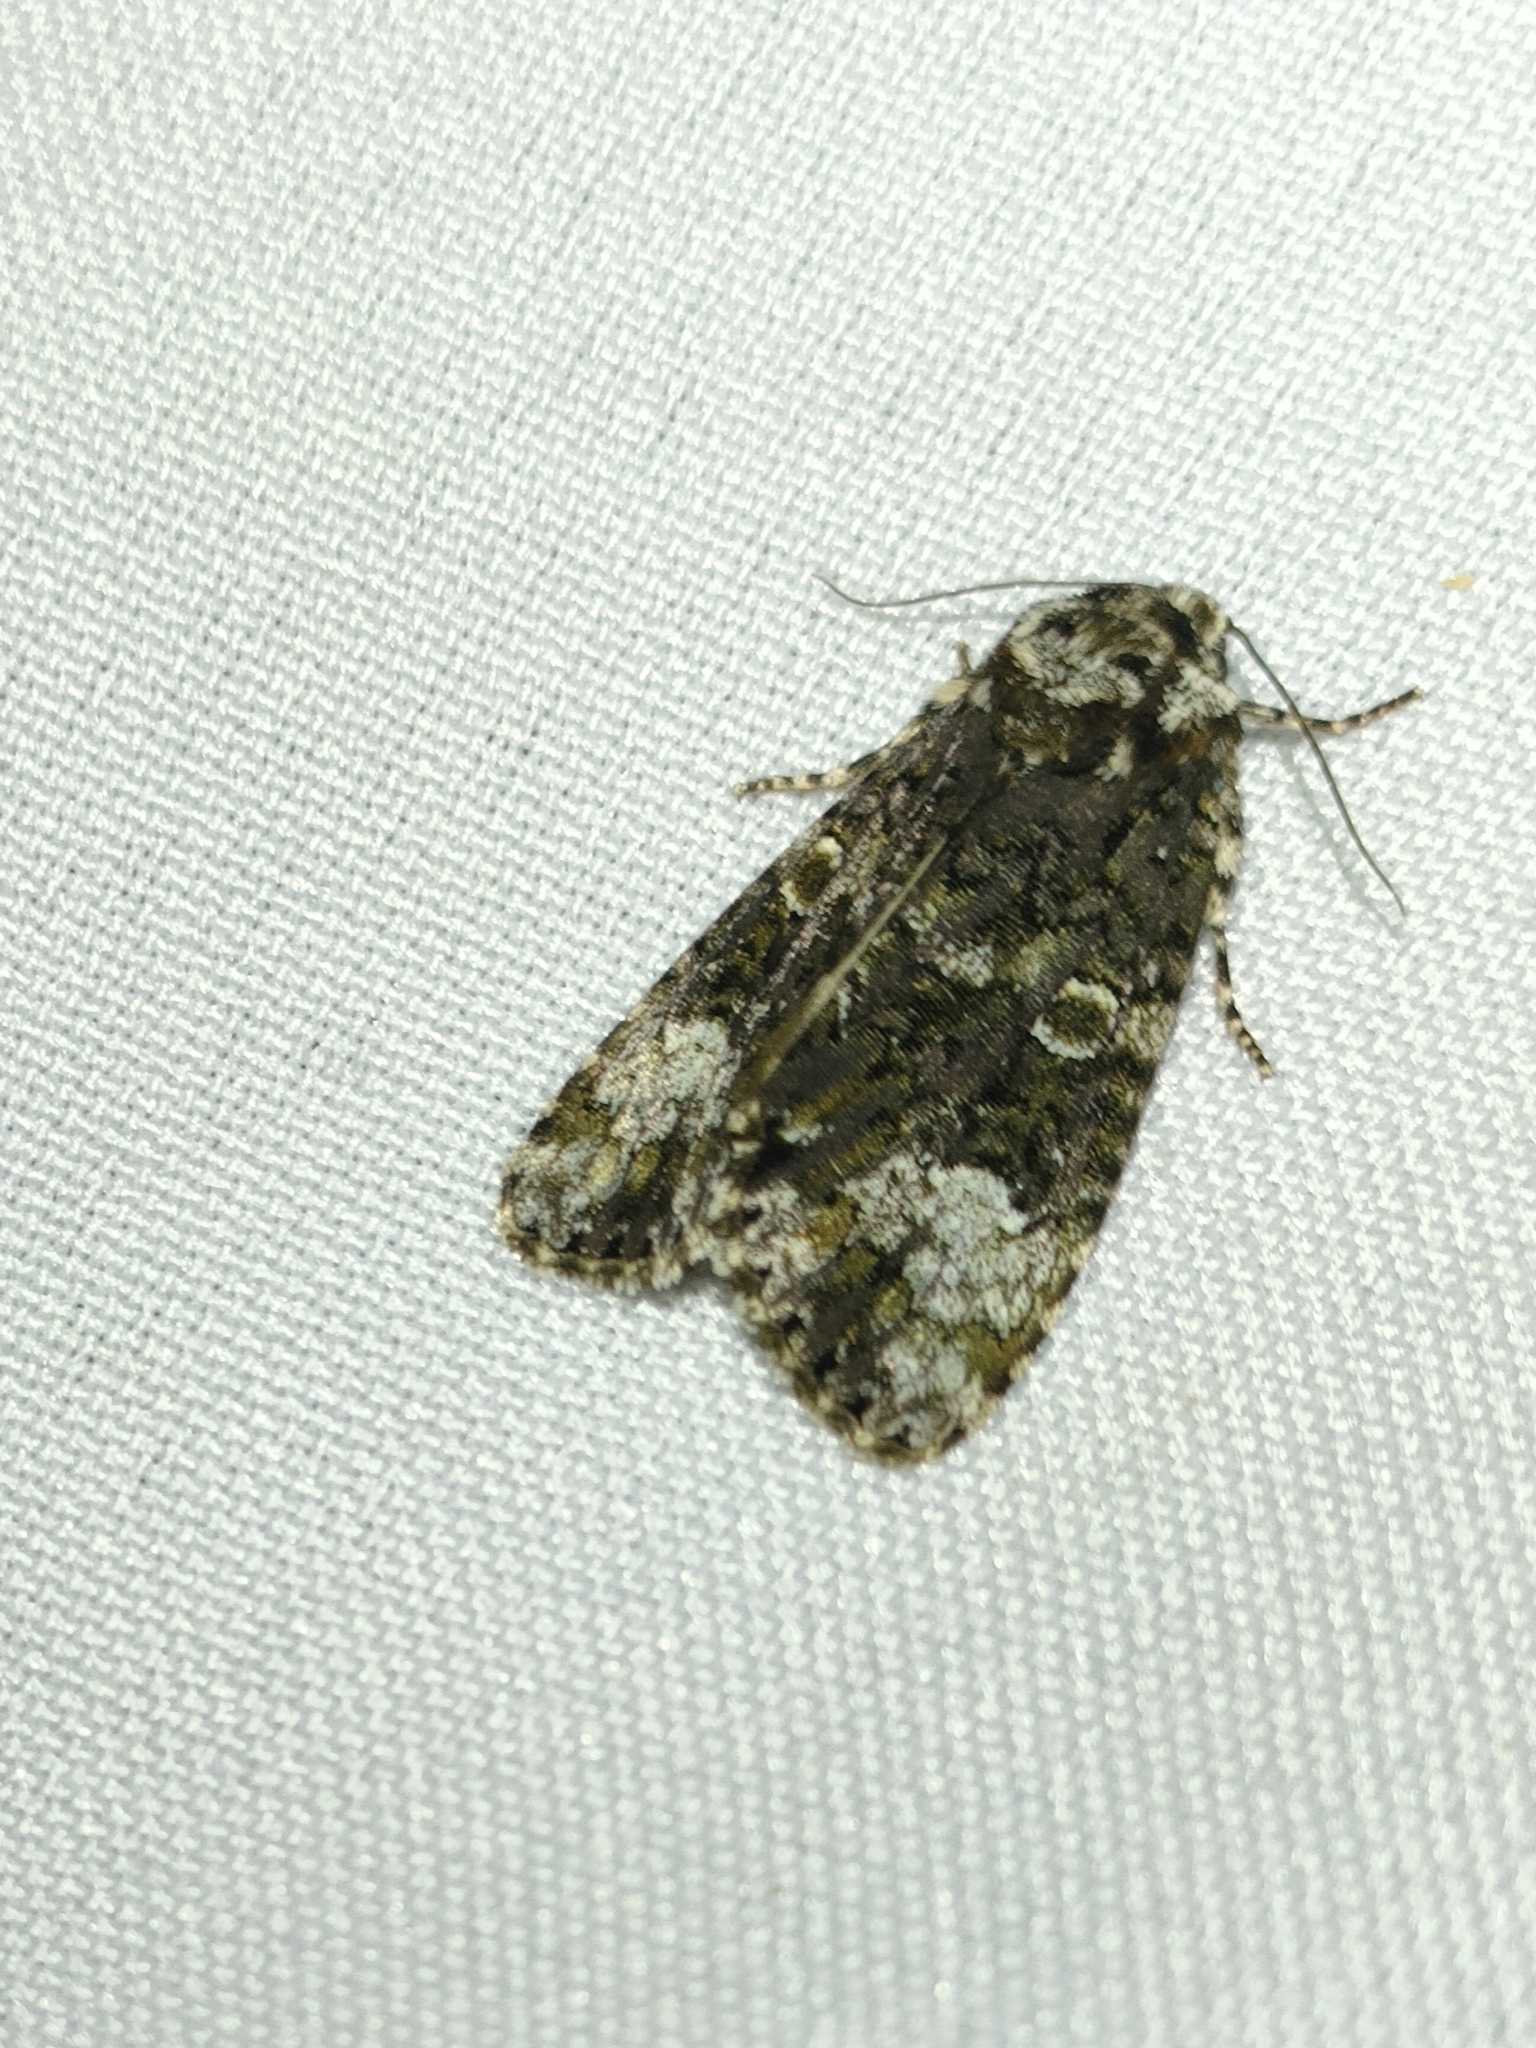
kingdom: Animalia
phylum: Arthropoda
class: Insecta
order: Lepidoptera
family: Noctuidae
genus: Craniophora
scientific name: Craniophora ligustri
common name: Coronet
